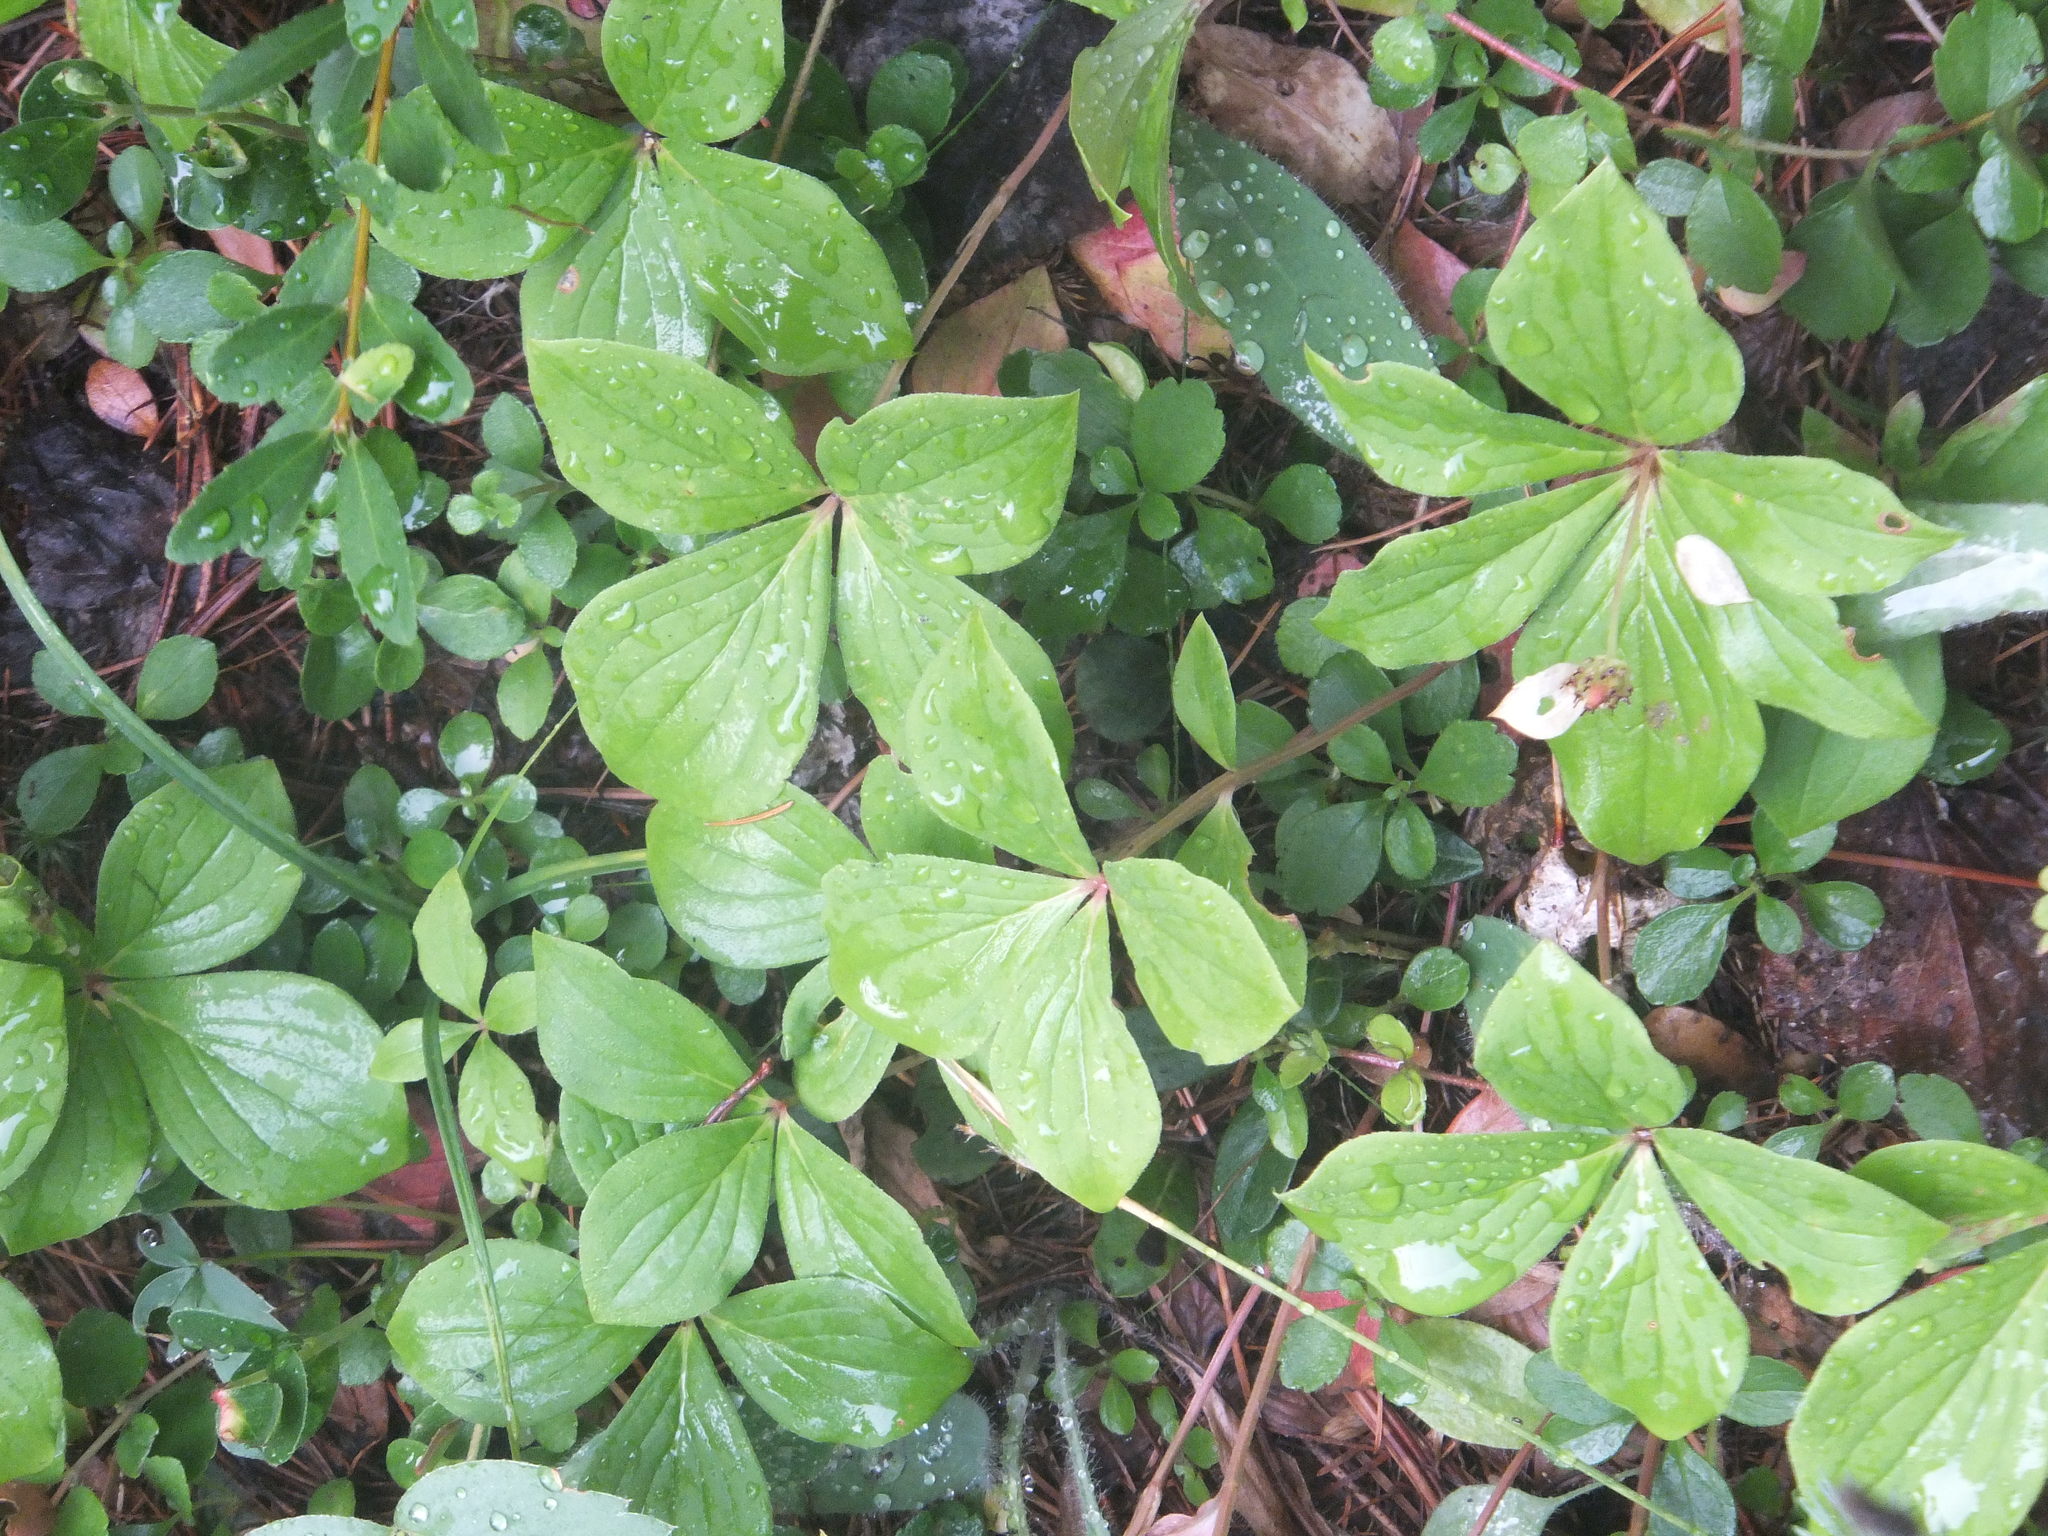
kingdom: Plantae
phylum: Tracheophyta
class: Magnoliopsida
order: Cornales
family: Cornaceae
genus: Cornus
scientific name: Cornus unalaschkensis
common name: Alaska bunchberry
